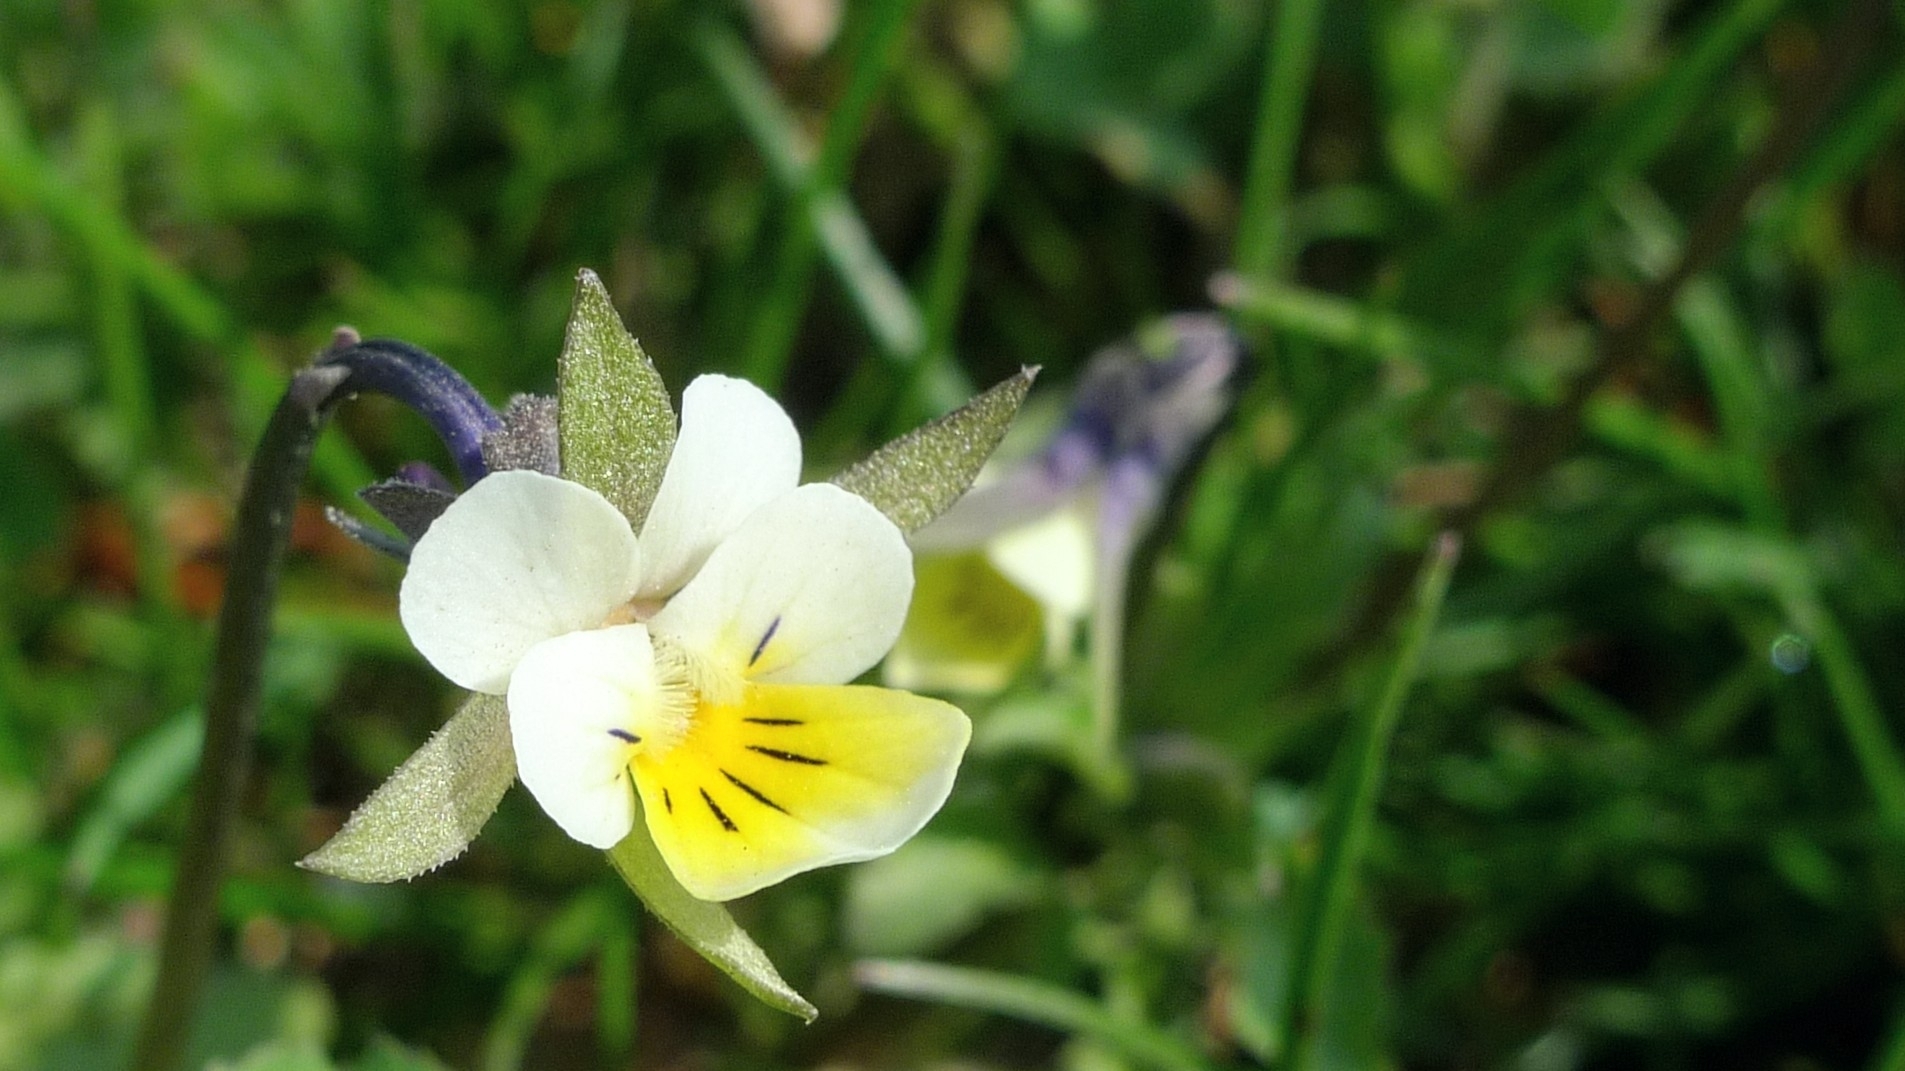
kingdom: Plantae
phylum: Tracheophyta
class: Magnoliopsida
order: Malpighiales
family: Violaceae
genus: Viola
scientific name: Viola arvensis
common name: Field pansy
